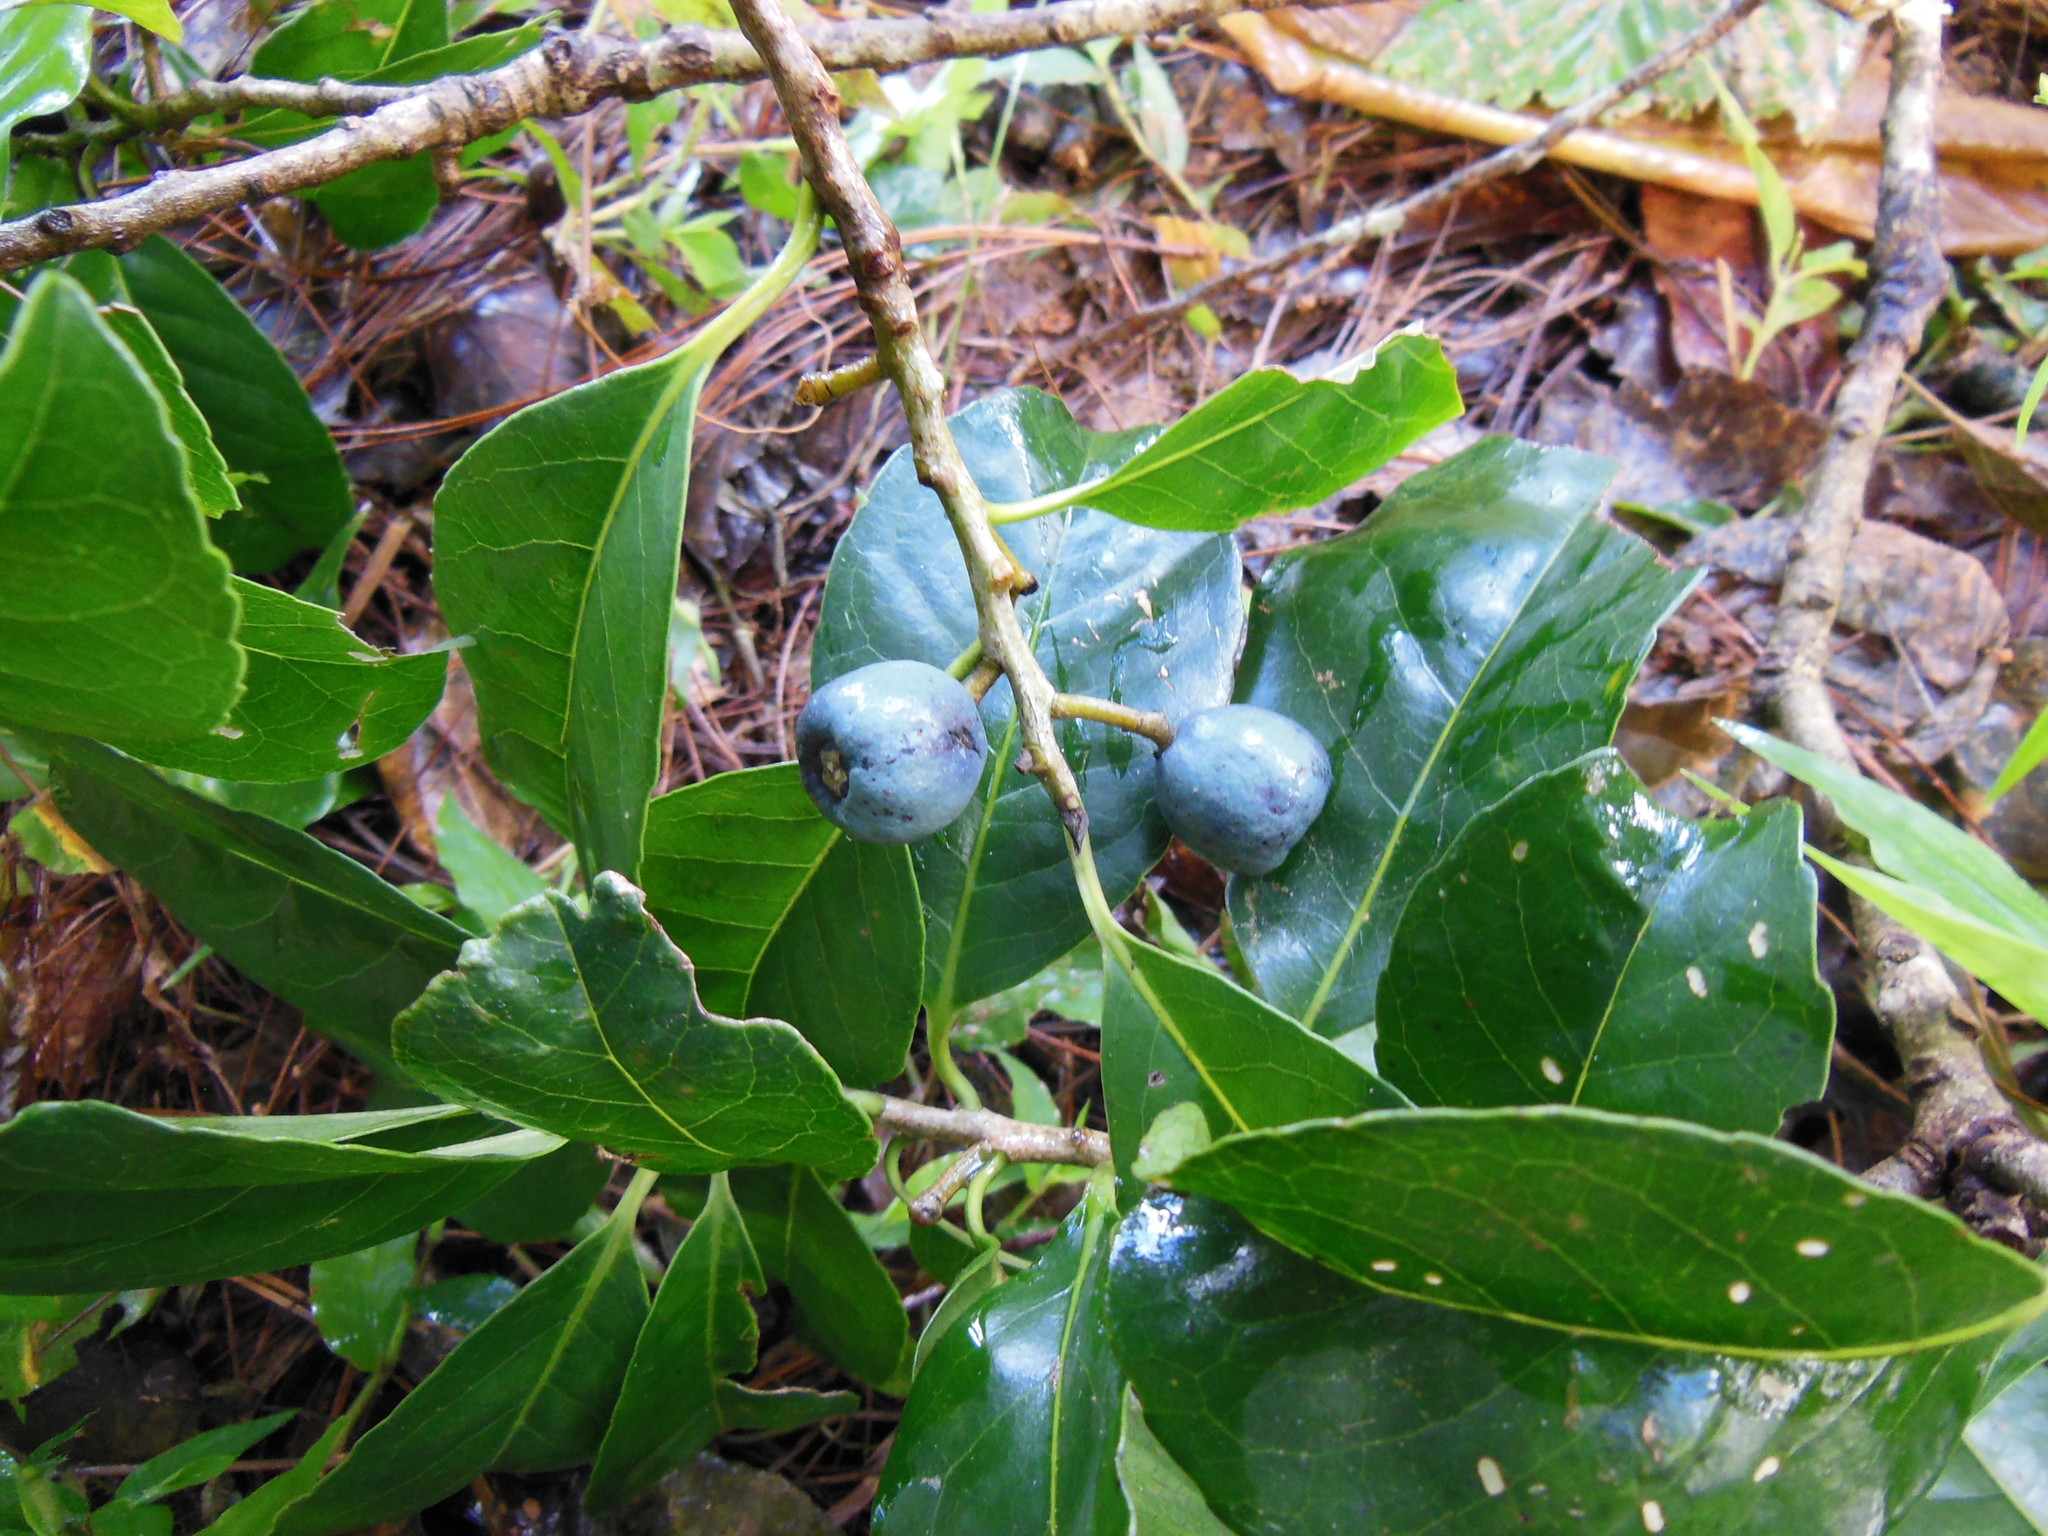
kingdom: Plantae
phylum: Tracheophyta
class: Magnoliopsida
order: Ericales
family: Symplocaceae
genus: Symplocos
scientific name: Symplocos limoncillo
